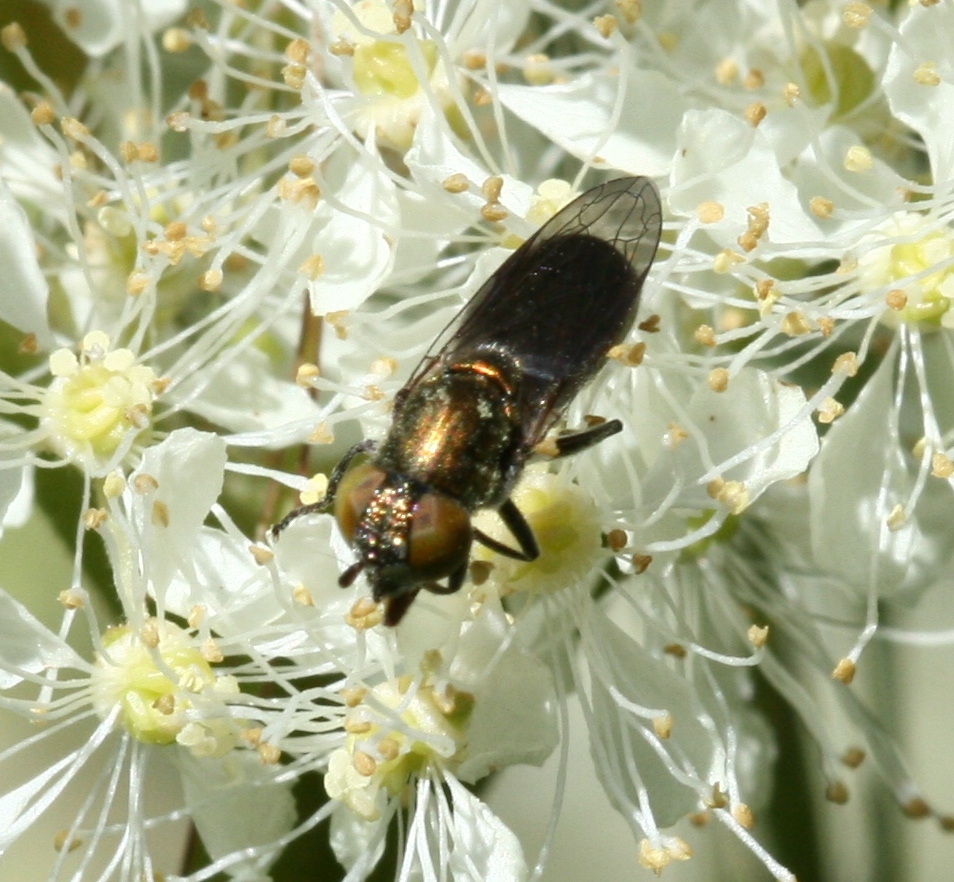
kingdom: Animalia
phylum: Arthropoda
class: Insecta
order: Diptera
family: Syrphidae
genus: Orthonevra
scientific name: Orthonevra splendens
